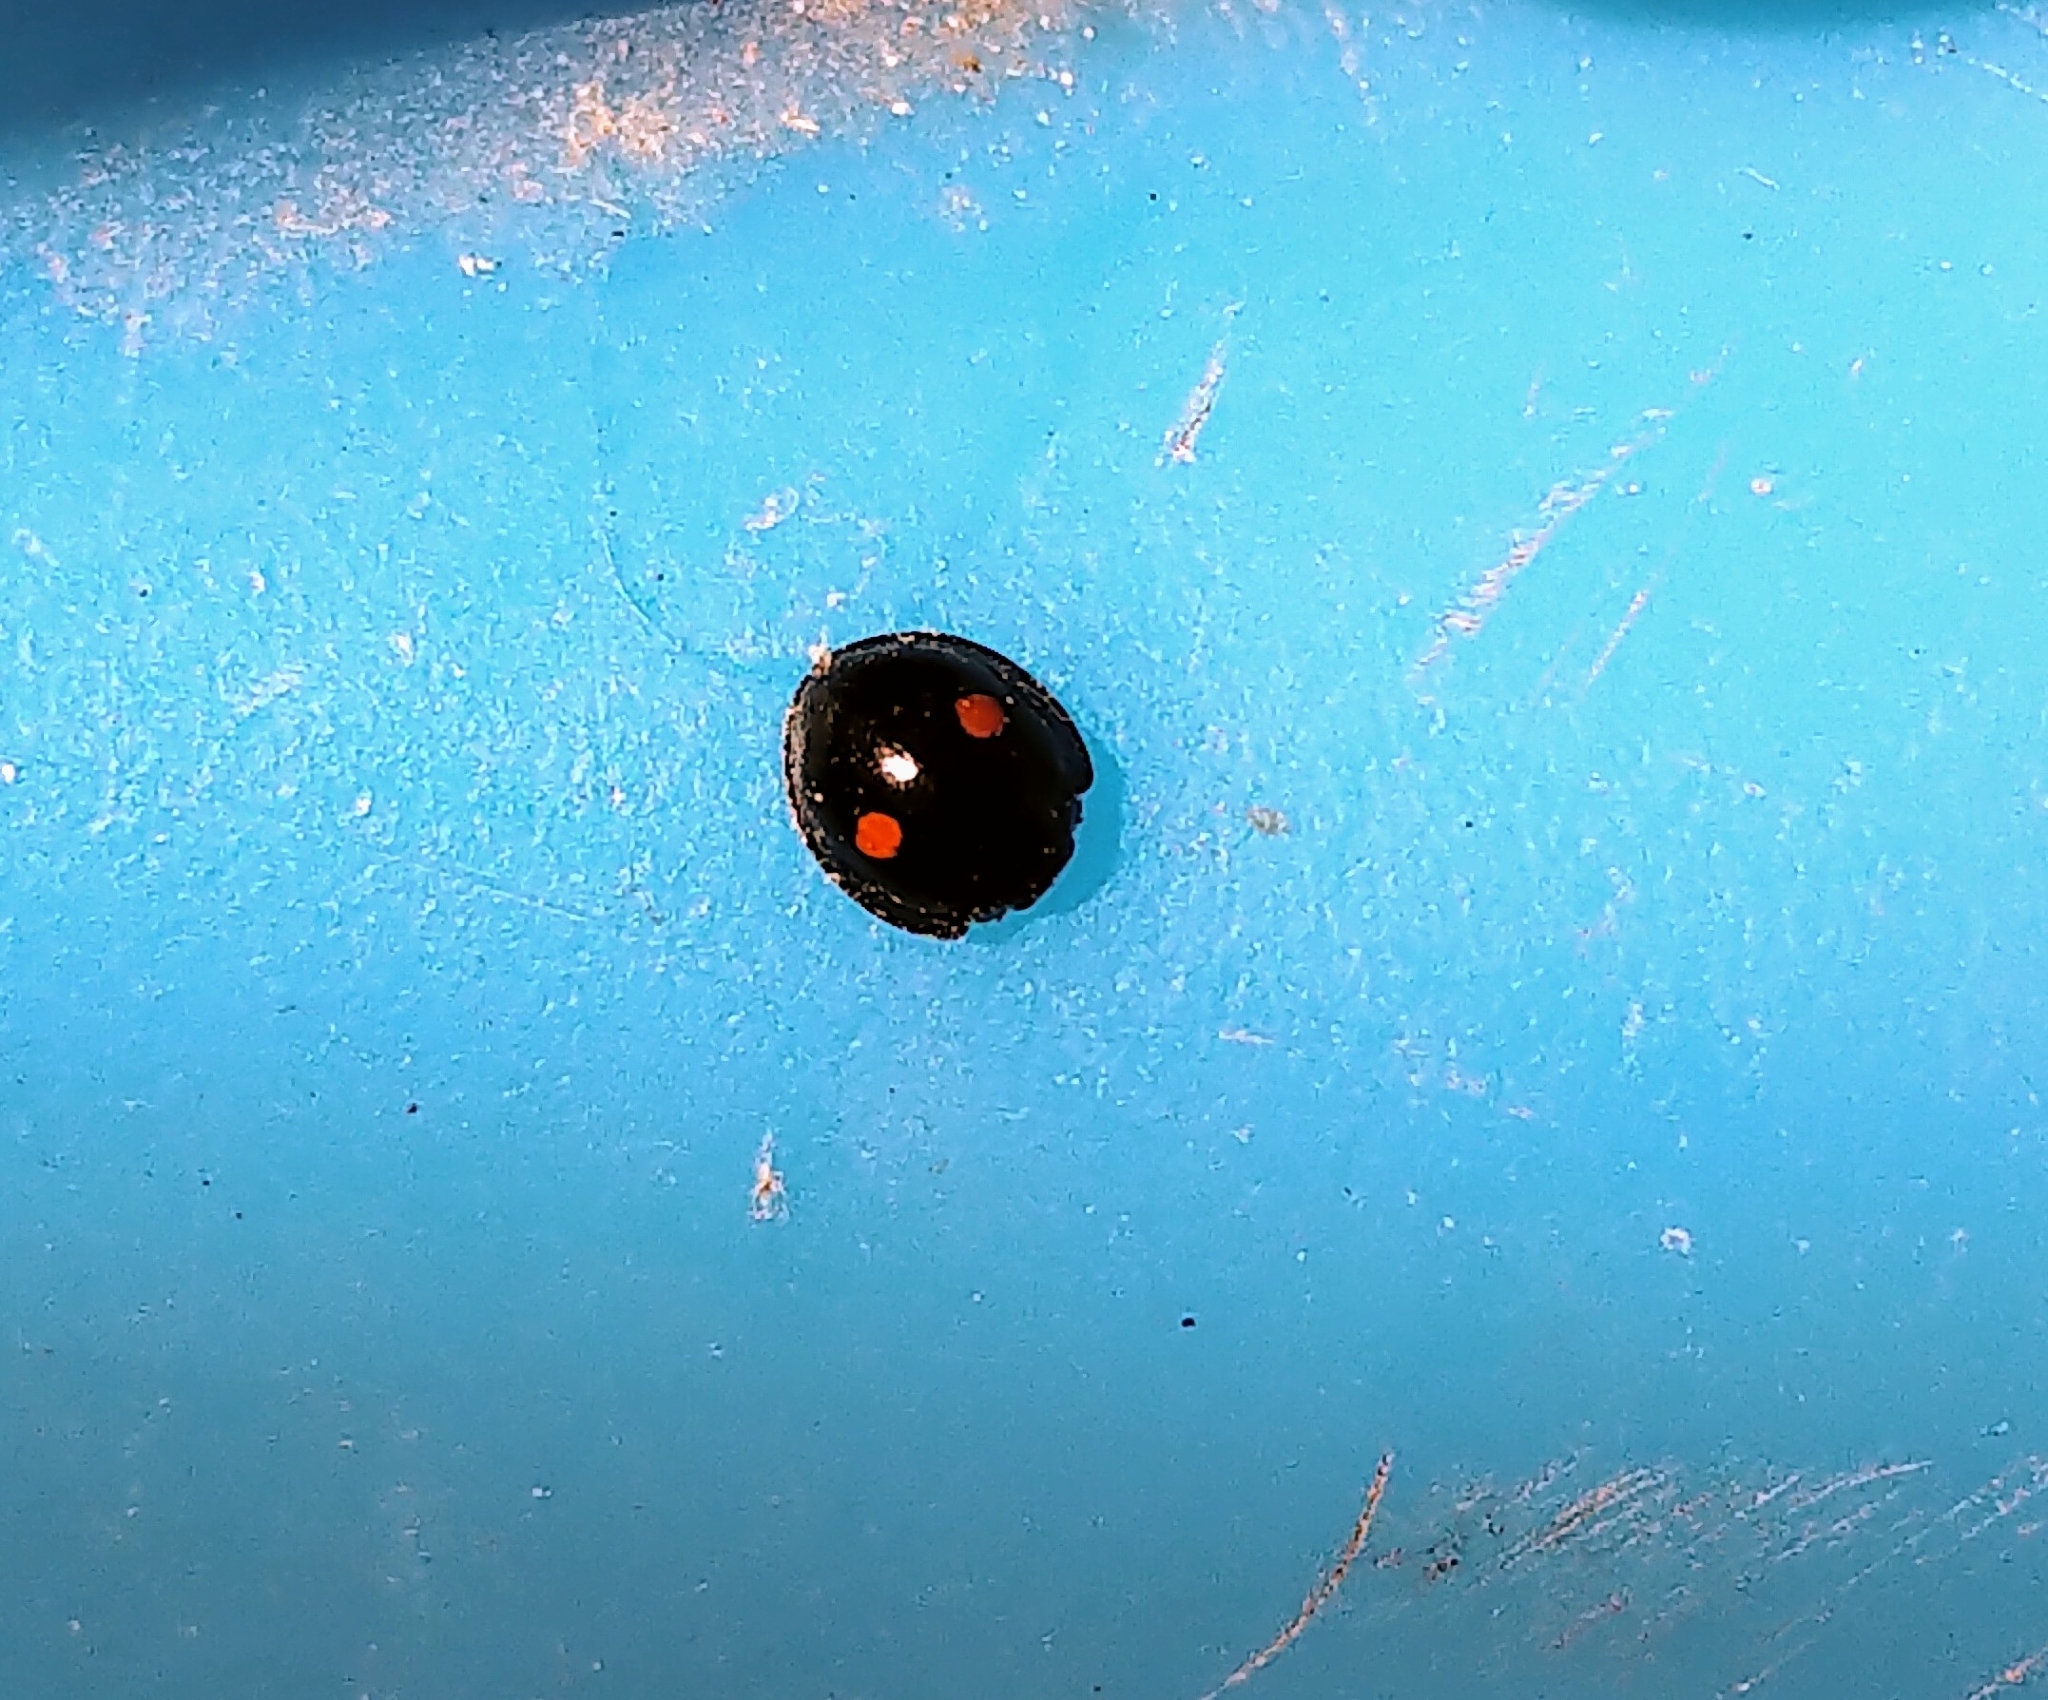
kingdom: Animalia
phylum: Arthropoda
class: Insecta
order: Coleoptera
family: Coccinellidae
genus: Chilocorus
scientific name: Chilocorus stigma
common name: Twicestabbed lady beetle
